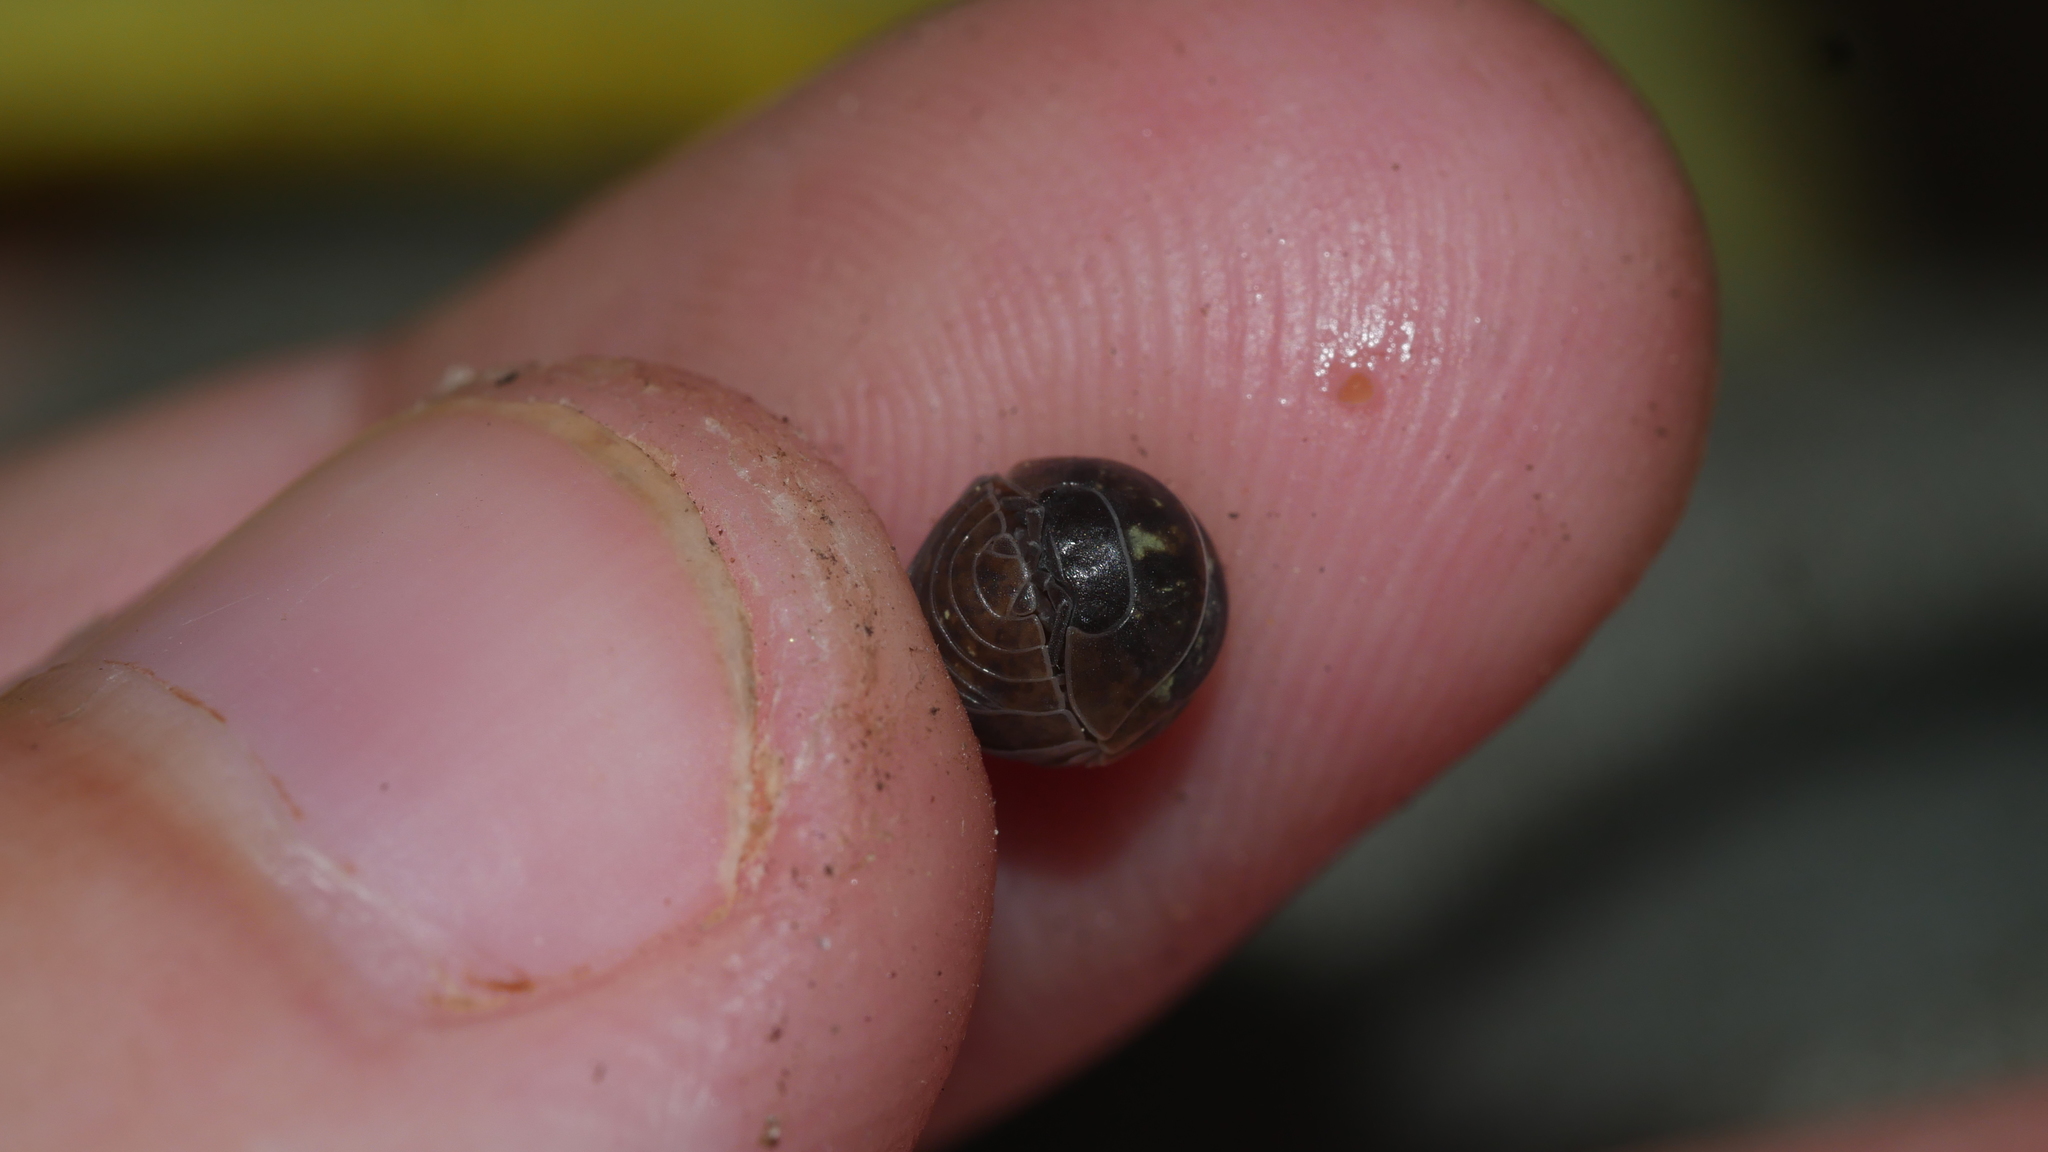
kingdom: Animalia
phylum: Arthropoda
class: Malacostraca
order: Isopoda
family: Armadillidiidae
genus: Armadillidium
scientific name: Armadillidium vulgare
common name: Common pill woodlouse
